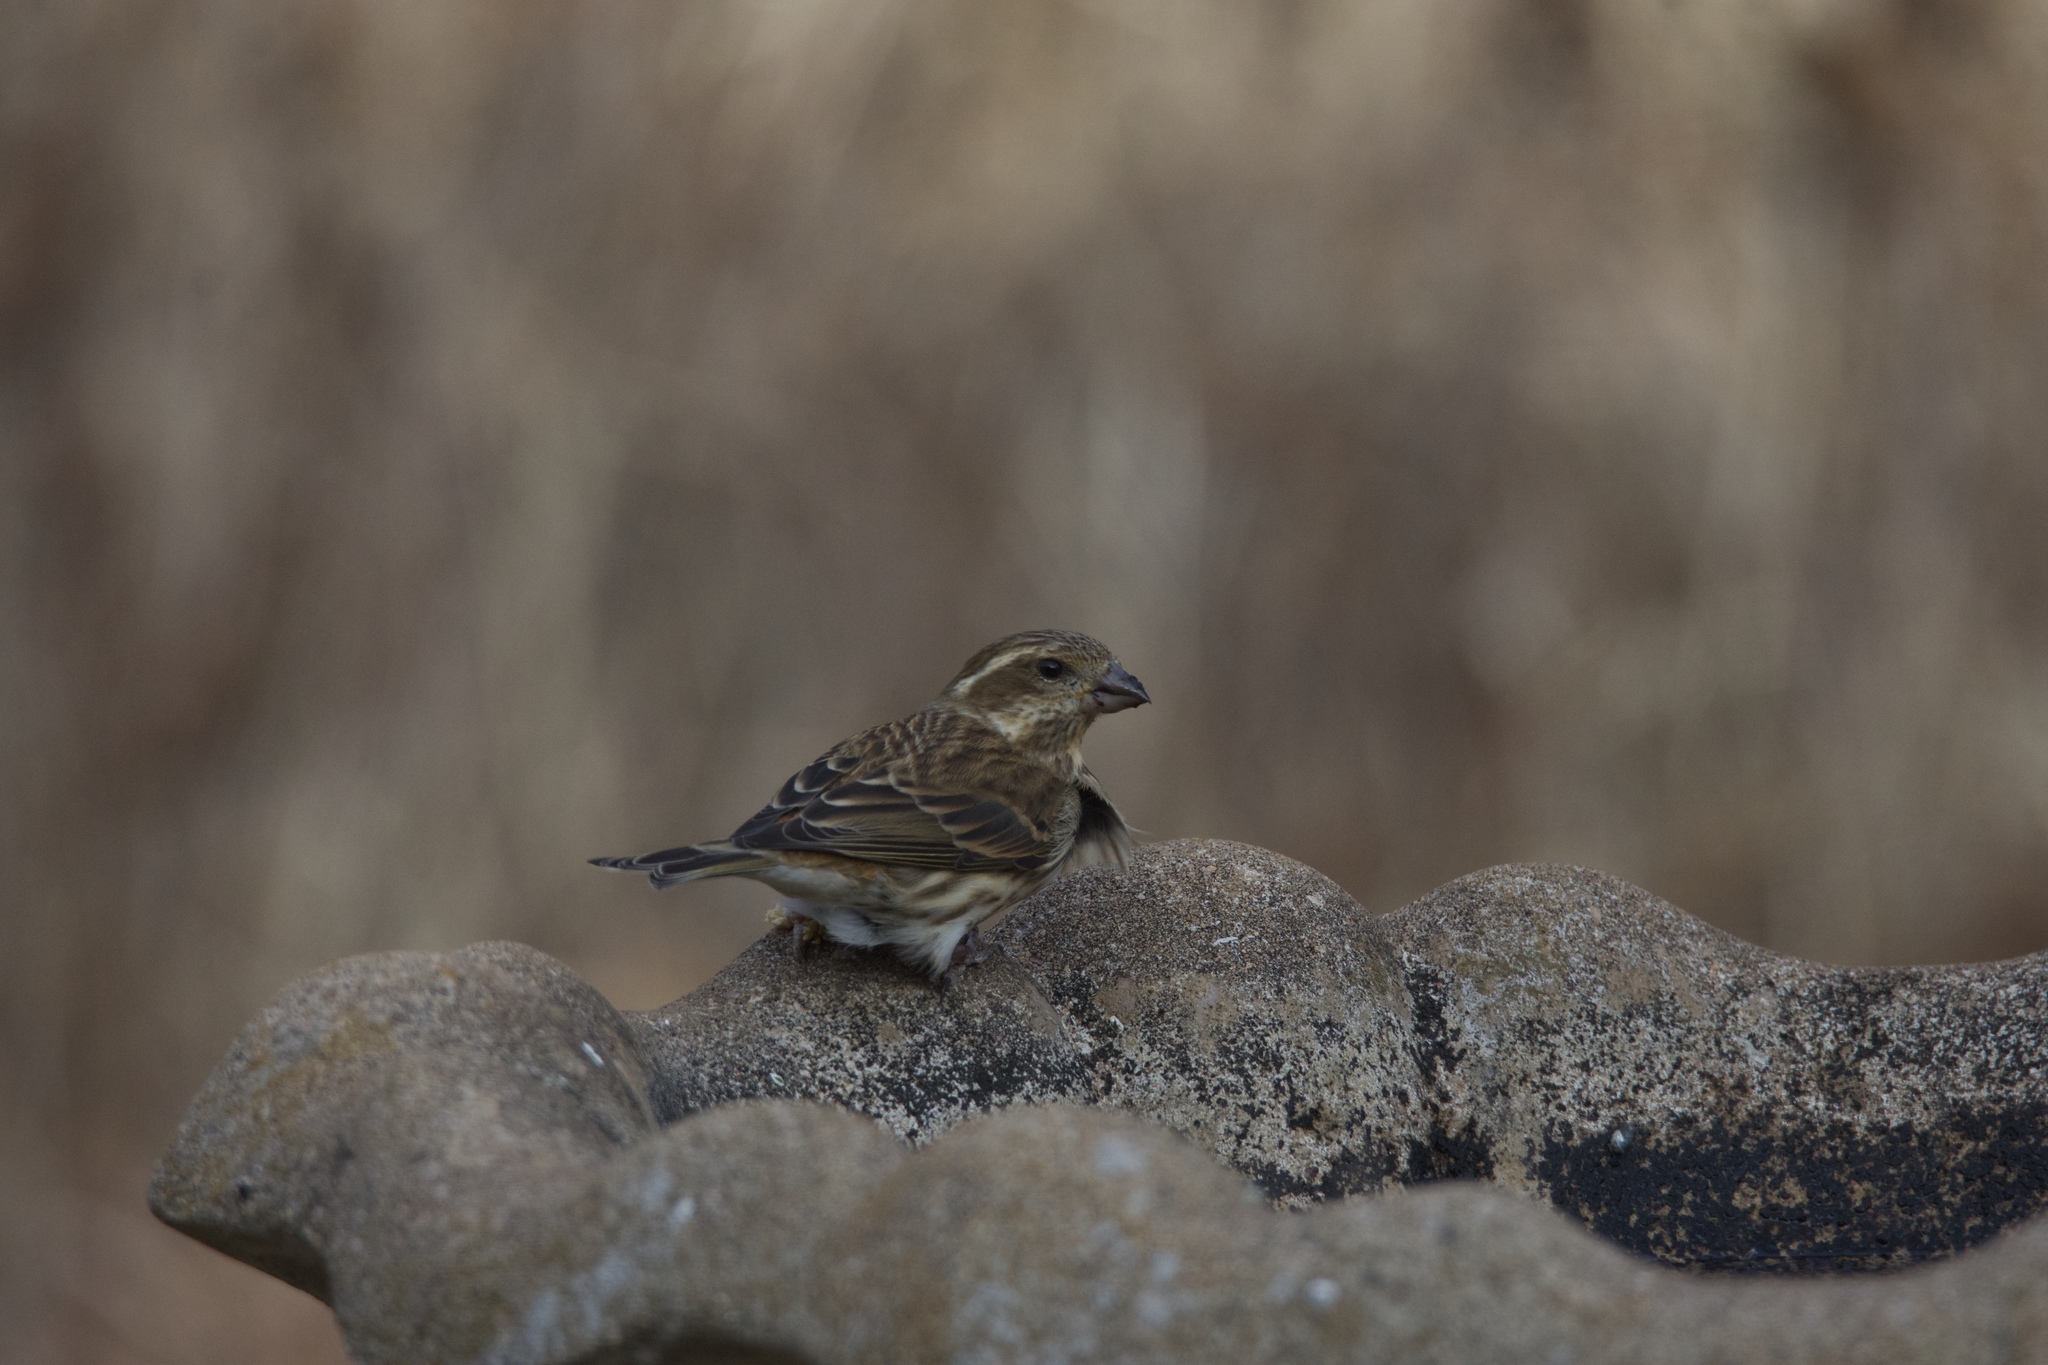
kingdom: Animalia
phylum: Chordata
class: Aves
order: Passeriformes
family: Fringillidae
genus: Haemorhous
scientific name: Haemorhous purpureus
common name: Purple finch
